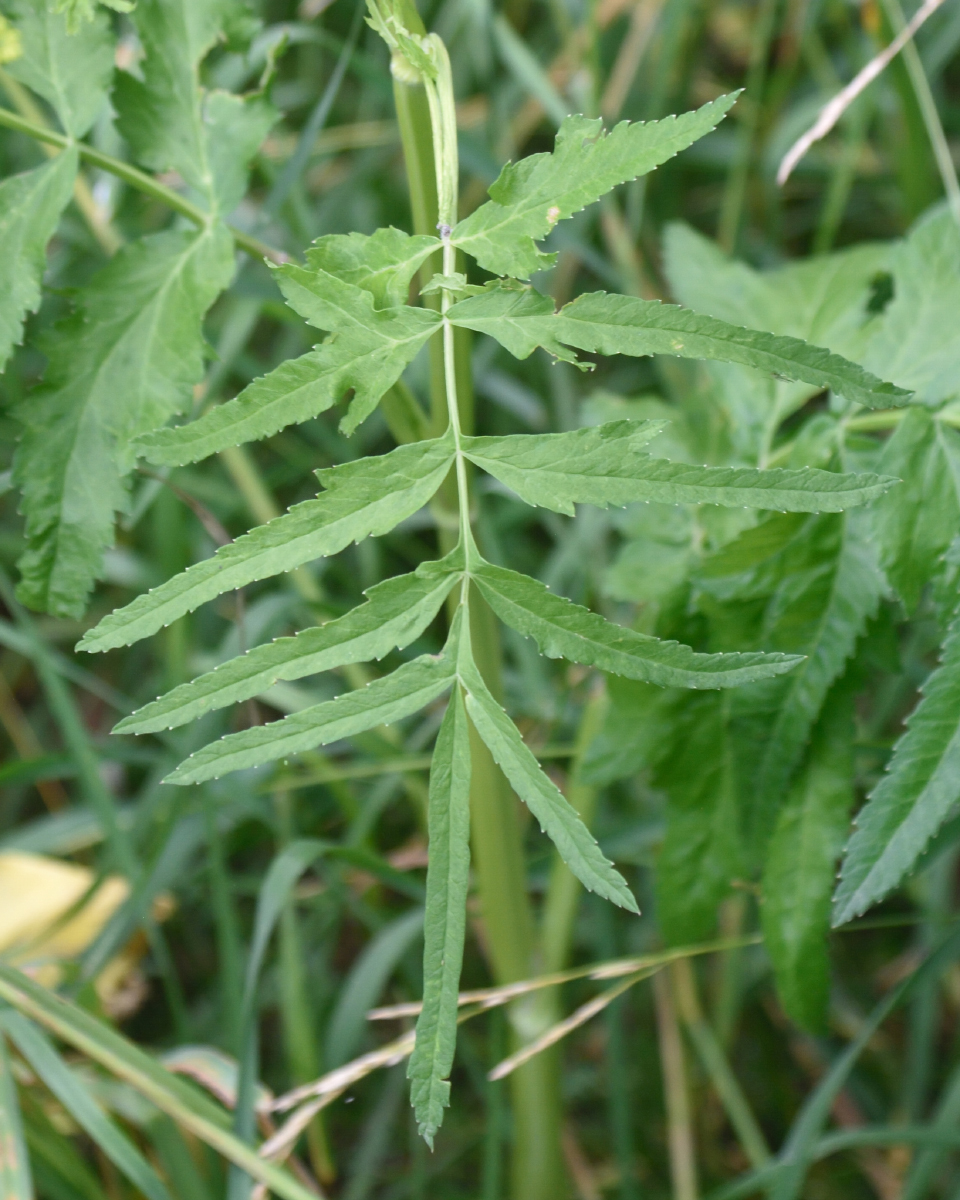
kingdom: Plantae
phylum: Tracheophyta
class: Magnoliopsida
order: Apiales
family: Apiaceae
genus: Pastinaca
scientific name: Pastinaca sativa
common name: Wild parsnip
